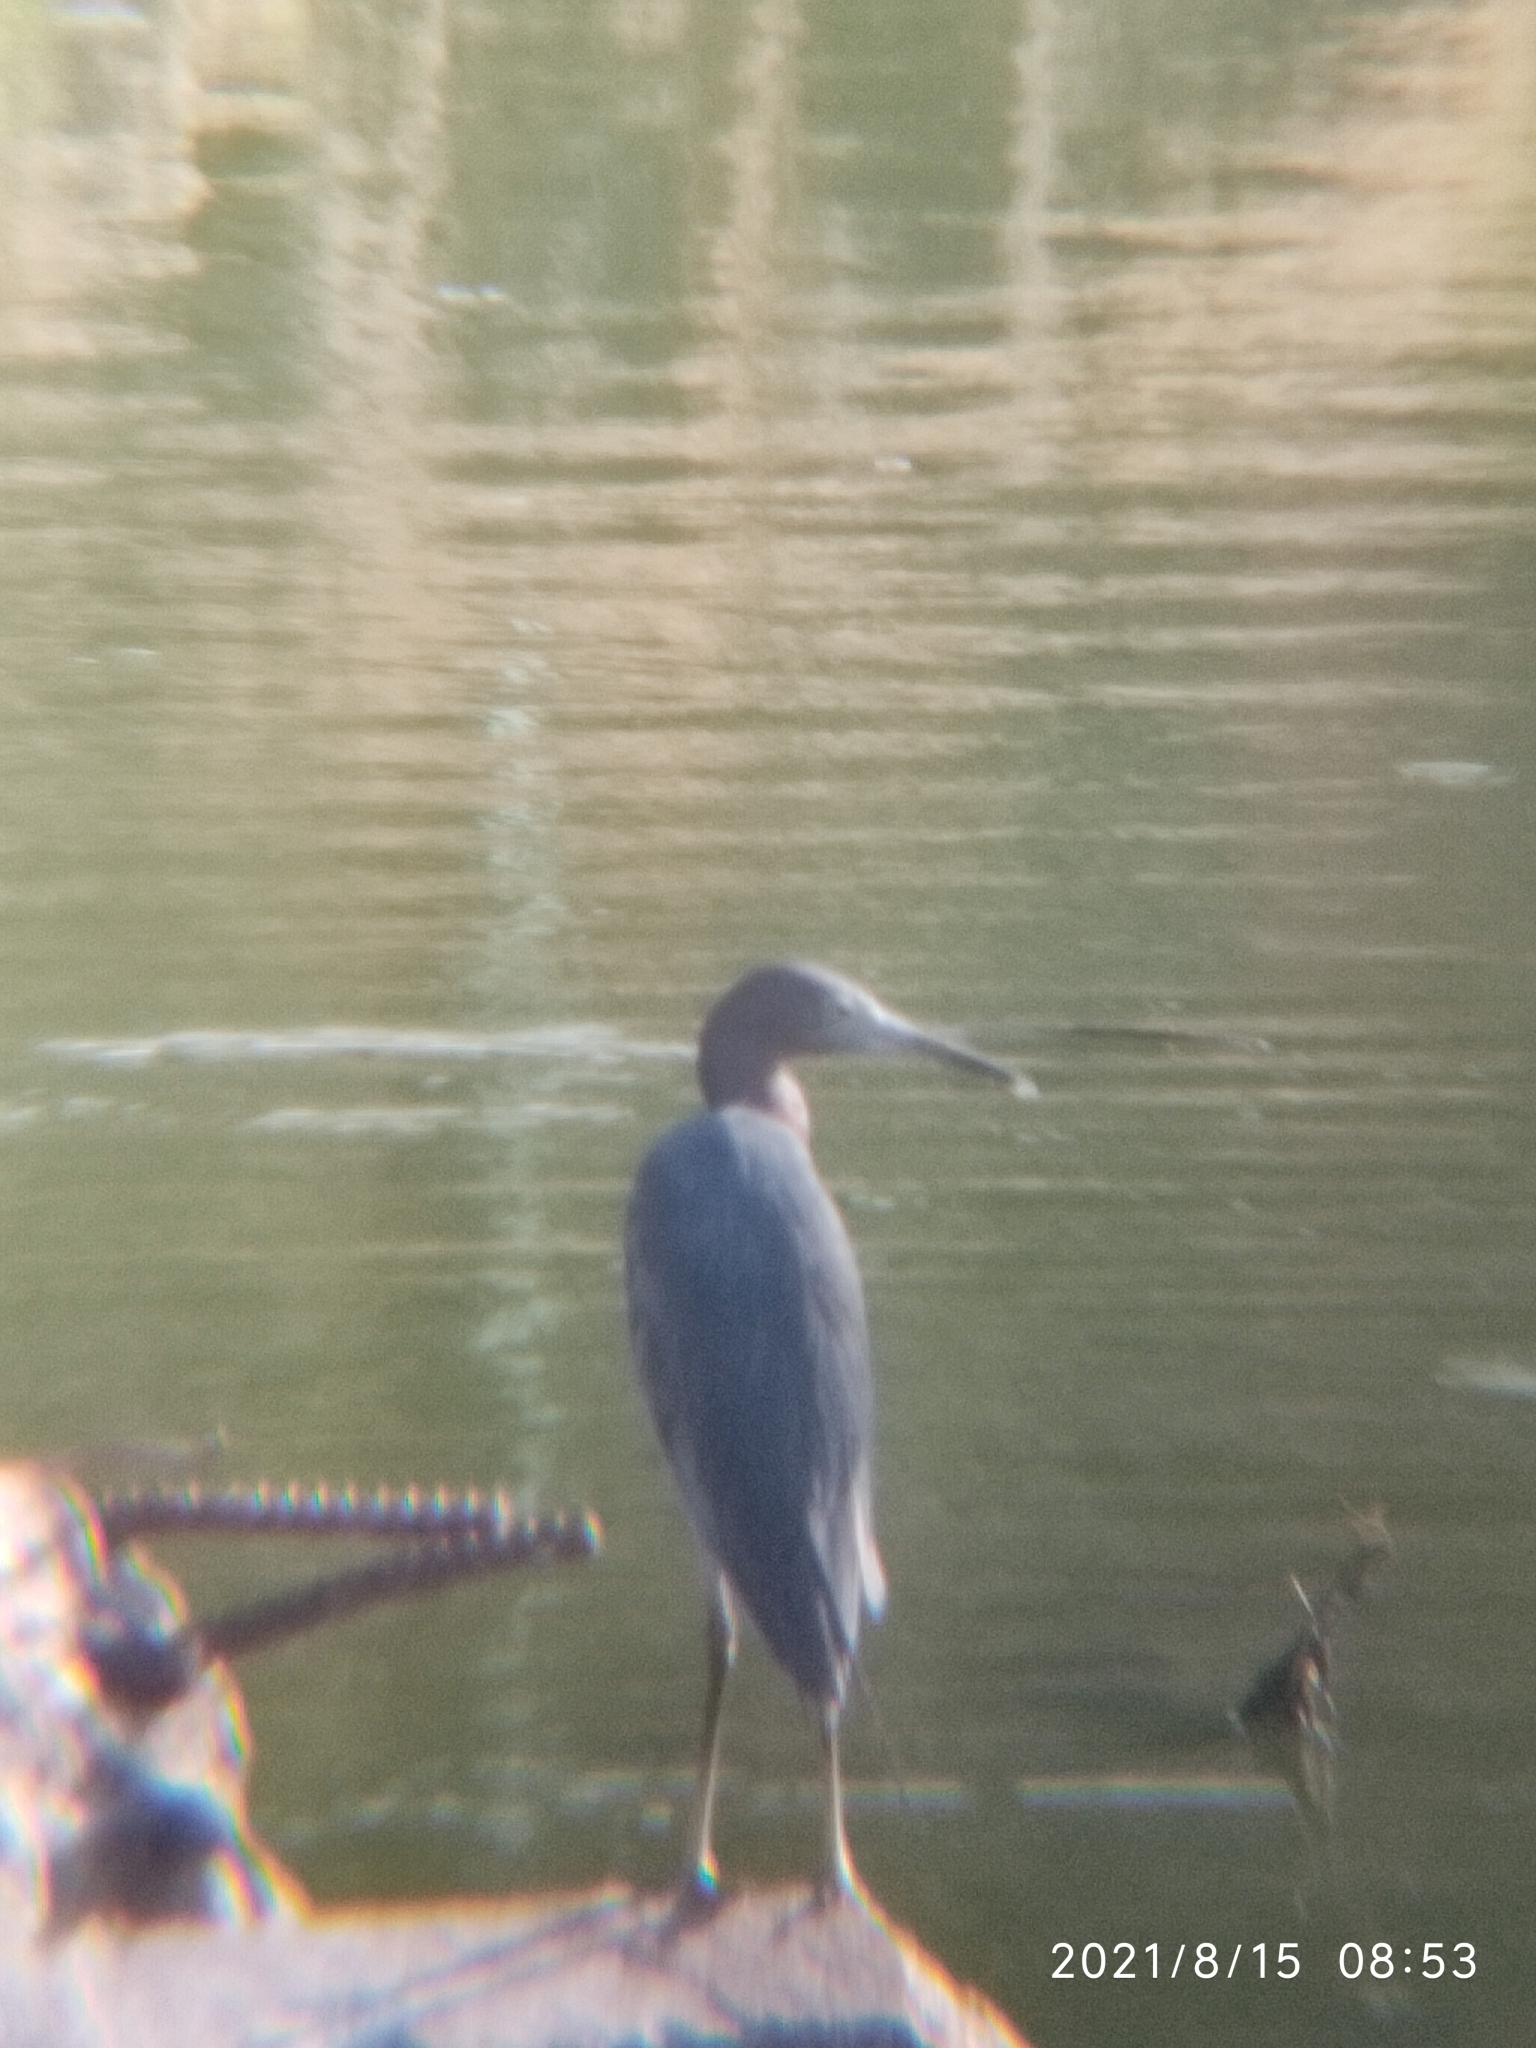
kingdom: Animalia
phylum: Chordata
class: Aves
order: Pelecaniformes
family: Ardeidae
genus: Egretta
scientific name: Egretta caerulea
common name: Little blue heron
